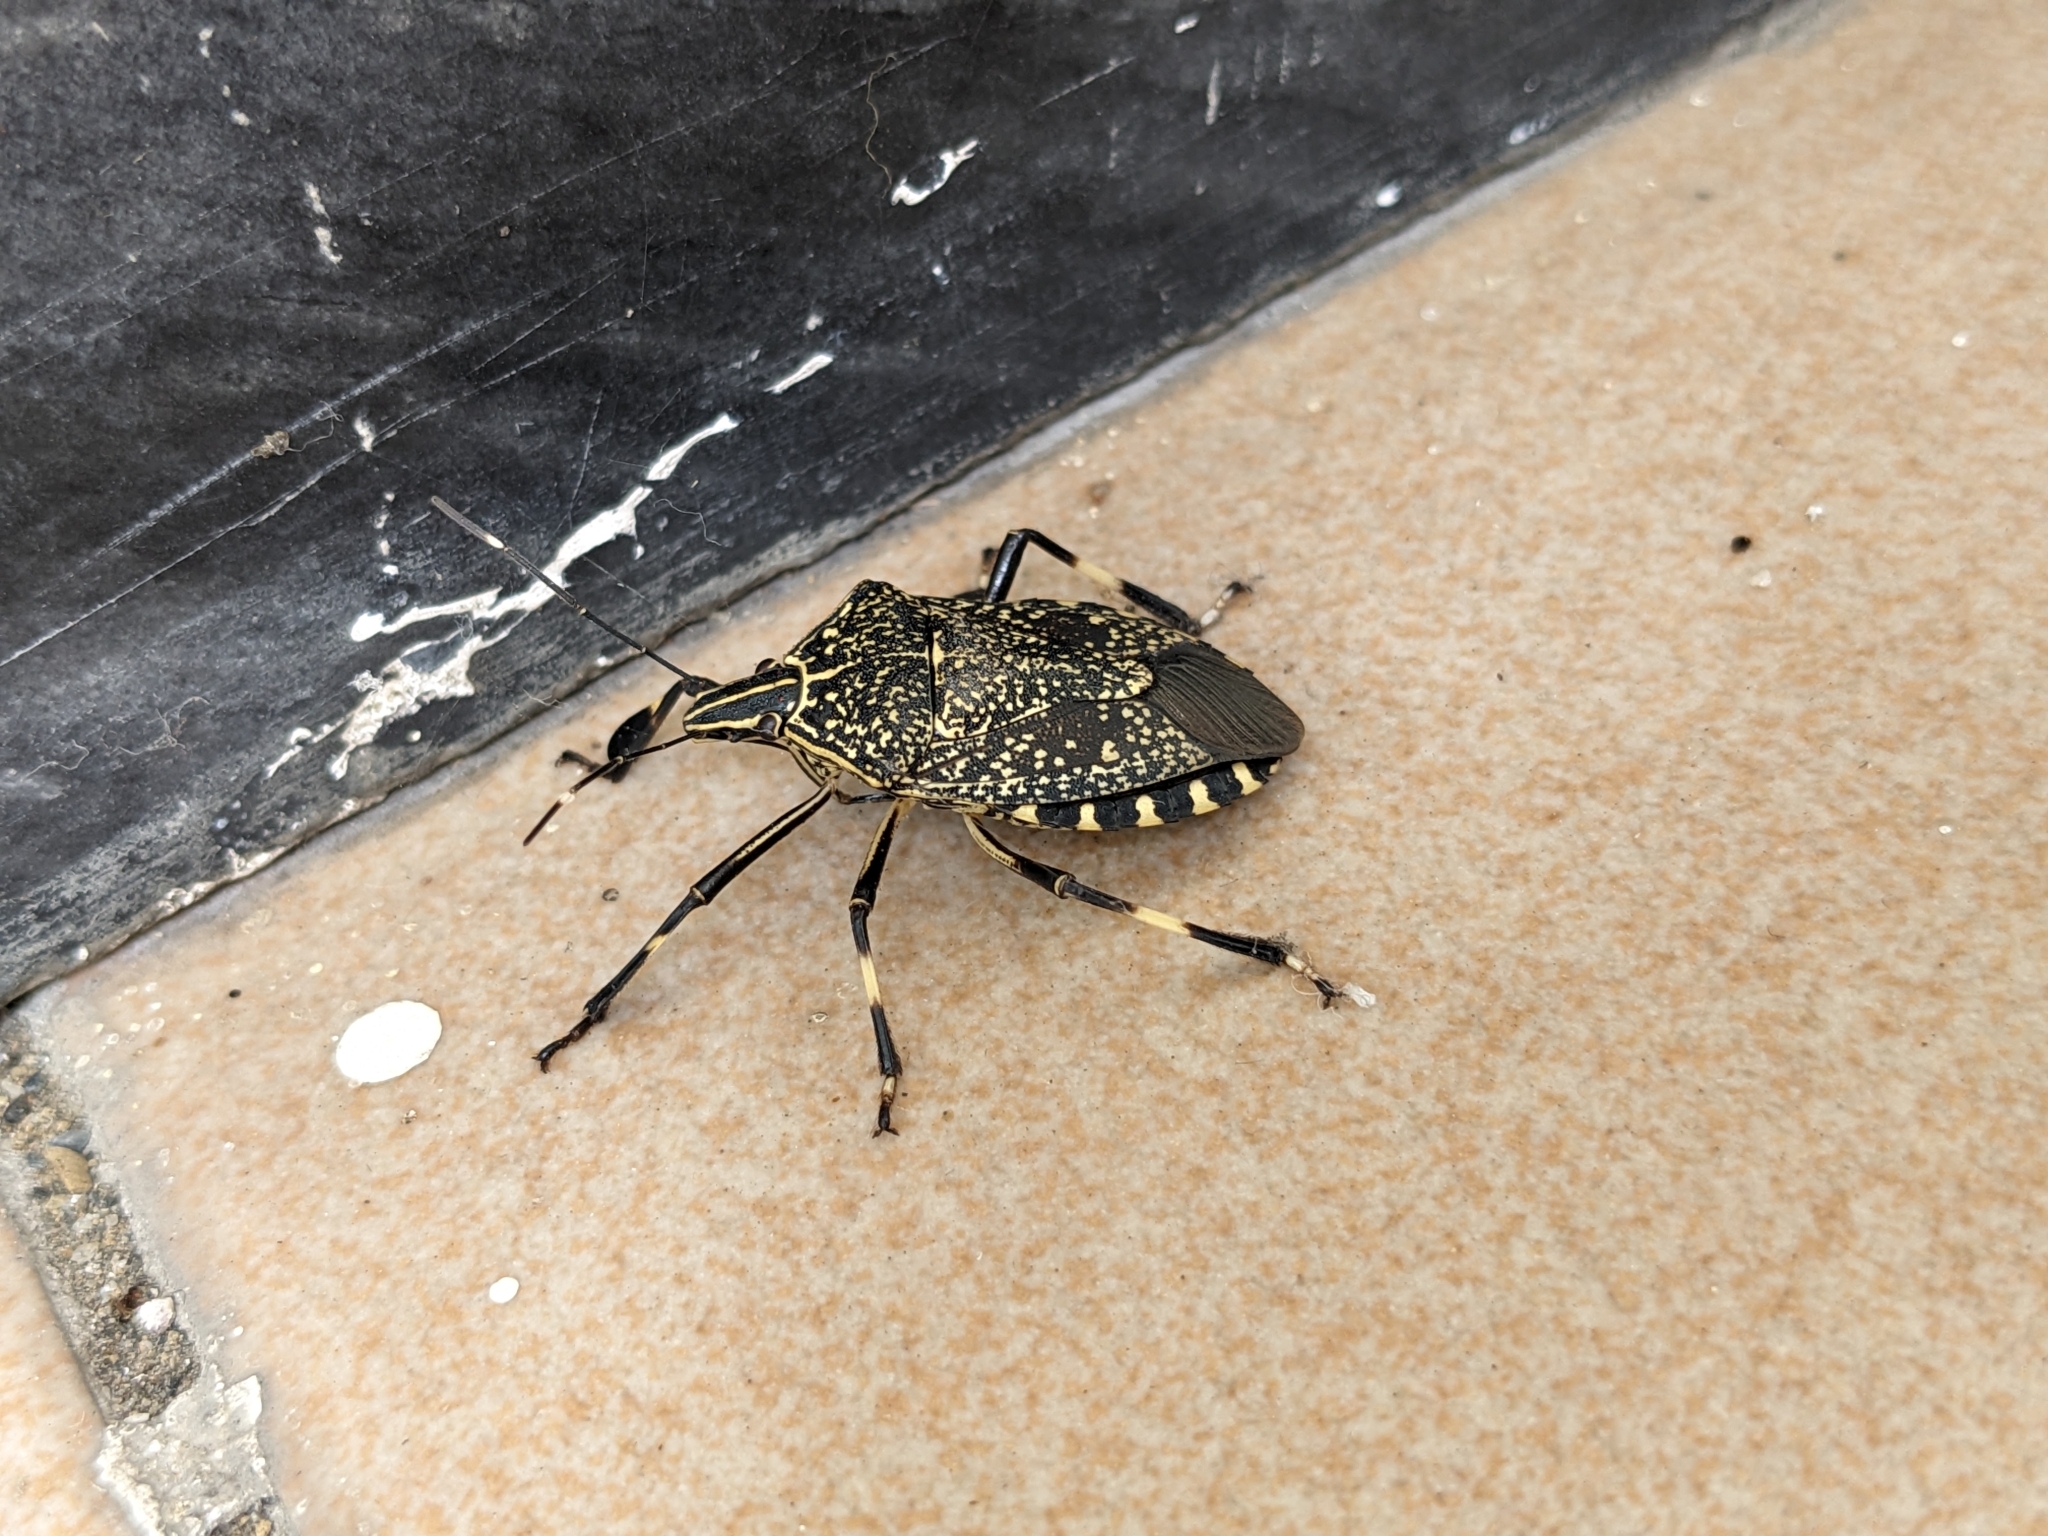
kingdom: Animalia
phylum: Arthropoda
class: Insecta
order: Hemiptera
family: Pentatomidae
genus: Erthesina
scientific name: Erthesina fullo
